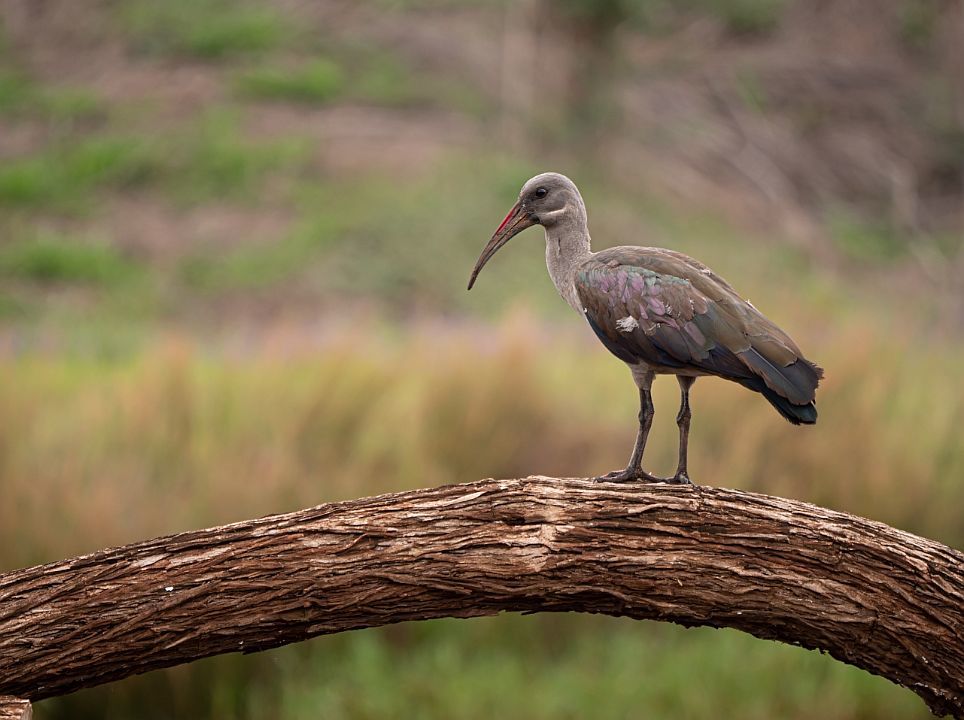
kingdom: Animalia
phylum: Chordata
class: Aves
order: Pelecaniformes
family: Threskiornithidae
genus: Bostrychia
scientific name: Bostrychia hagedash
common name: Hadada ibis
